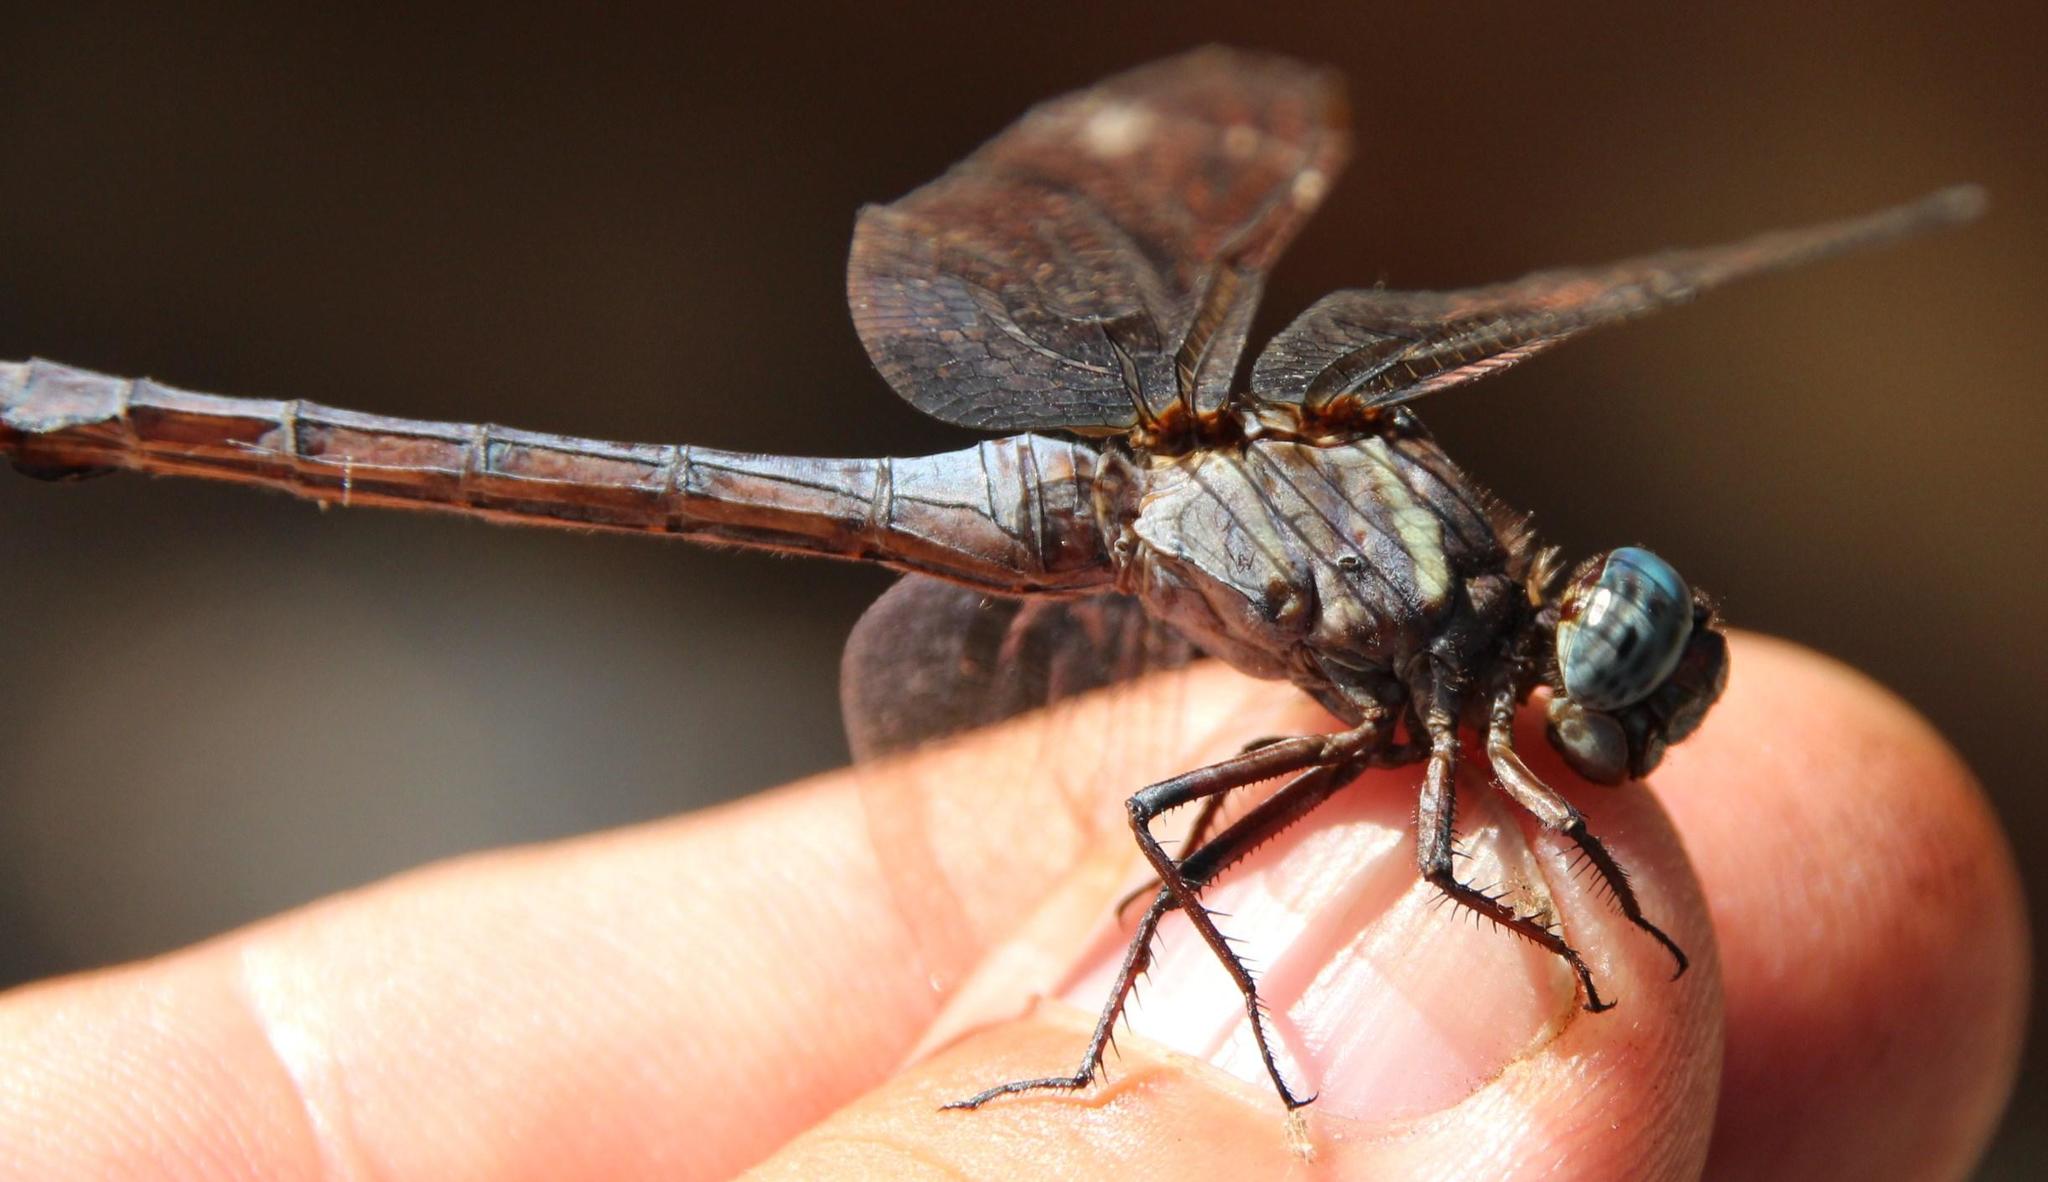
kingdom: Animalia
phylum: Arthropoda
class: Insecta
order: Odonata
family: Libellulidae
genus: Orthetrum
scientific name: Orthetrum julia
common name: Julia skimmer
